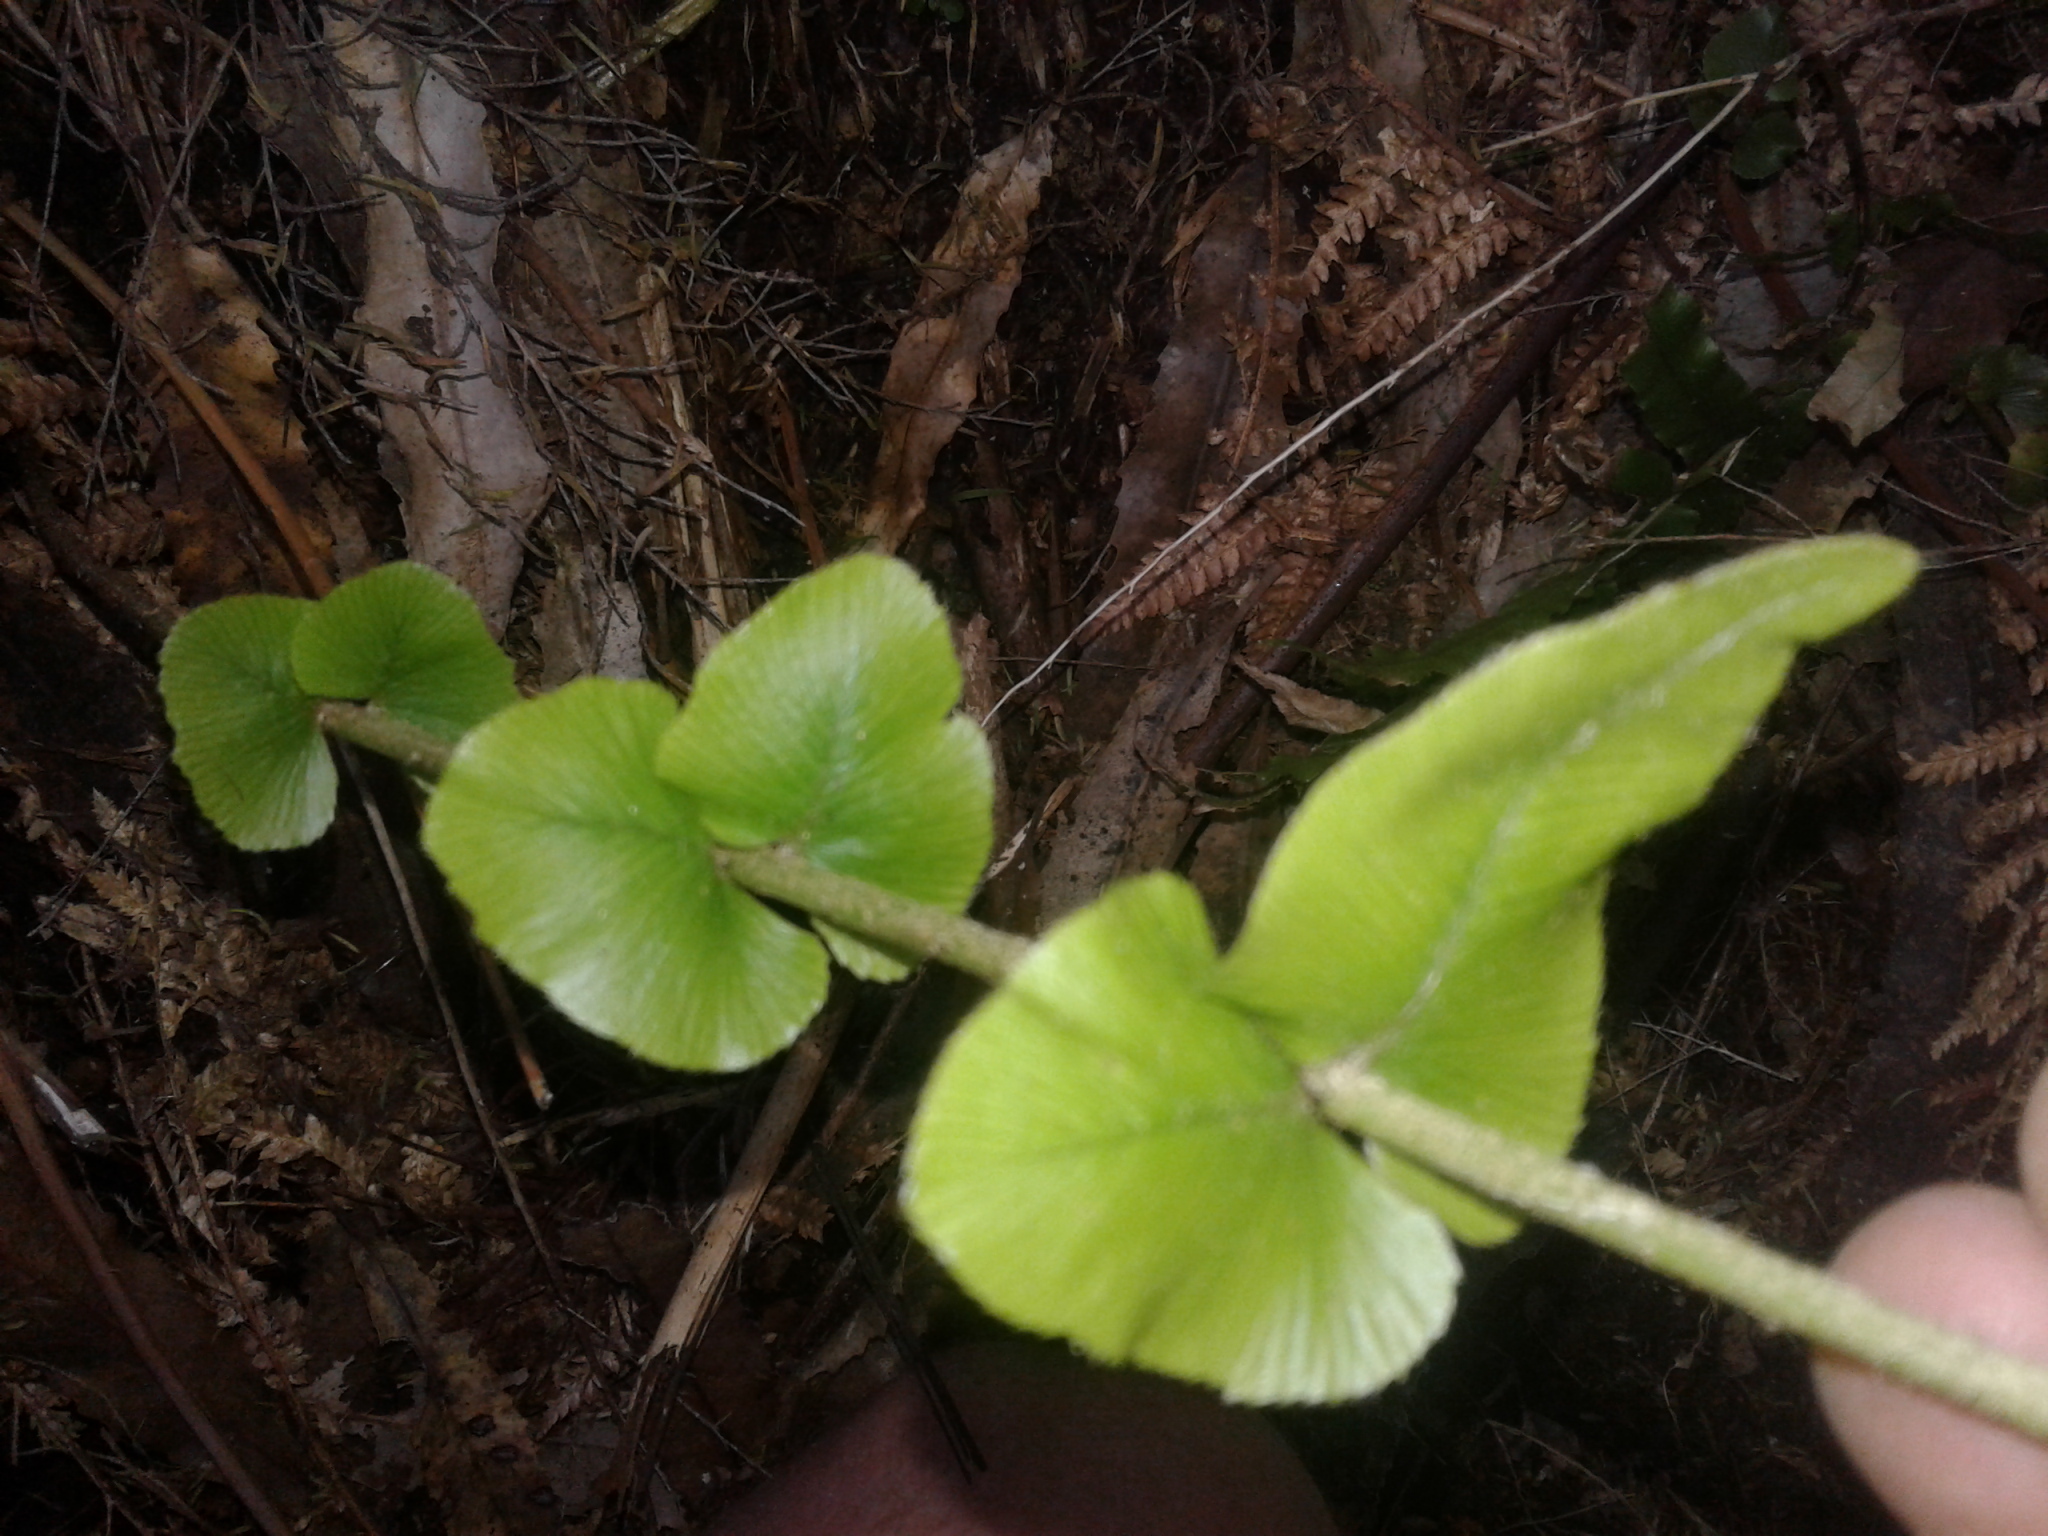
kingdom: Plantae
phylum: Tracheophyta
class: Polypodiopsida
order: Polypodiales
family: Blechnaceae
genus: Parablechnum
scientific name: Parablechnum novae-zelandiae
